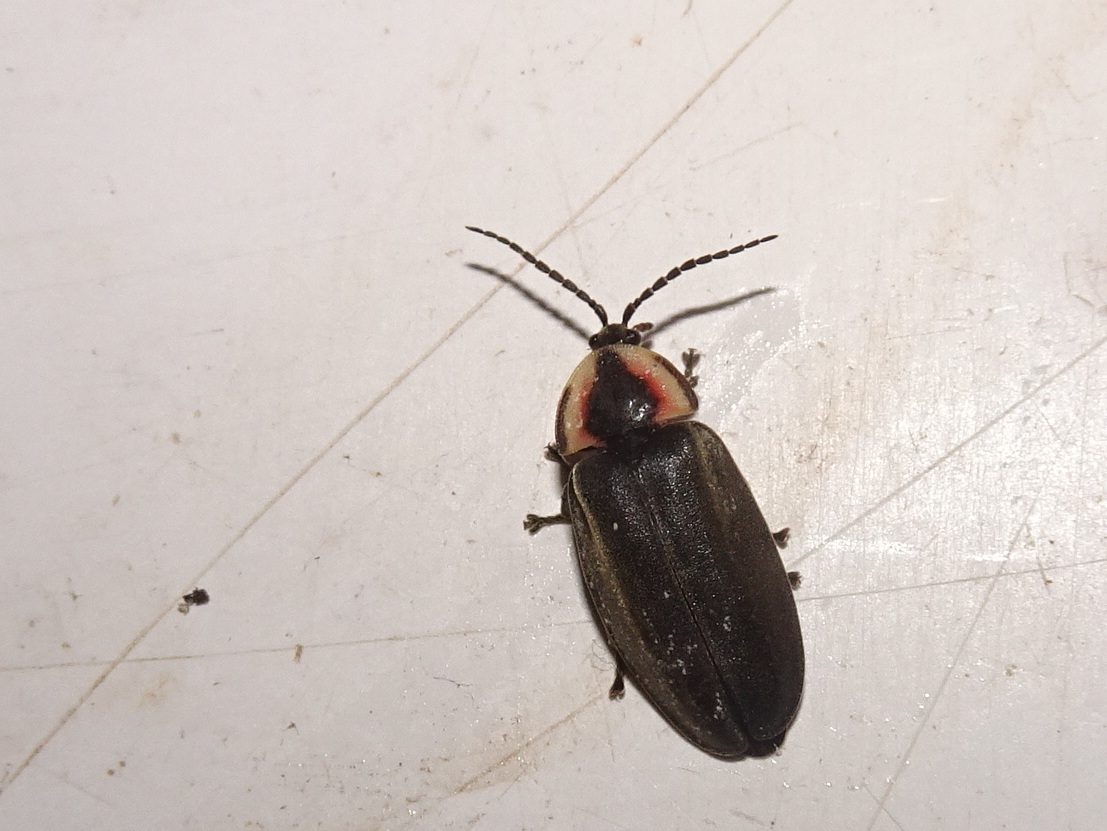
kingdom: Animalia
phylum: Arthropoda
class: Insecta
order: Coleoptera
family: Lampyridae
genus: Photinus
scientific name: Photinus corrusca
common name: Winter firefly
